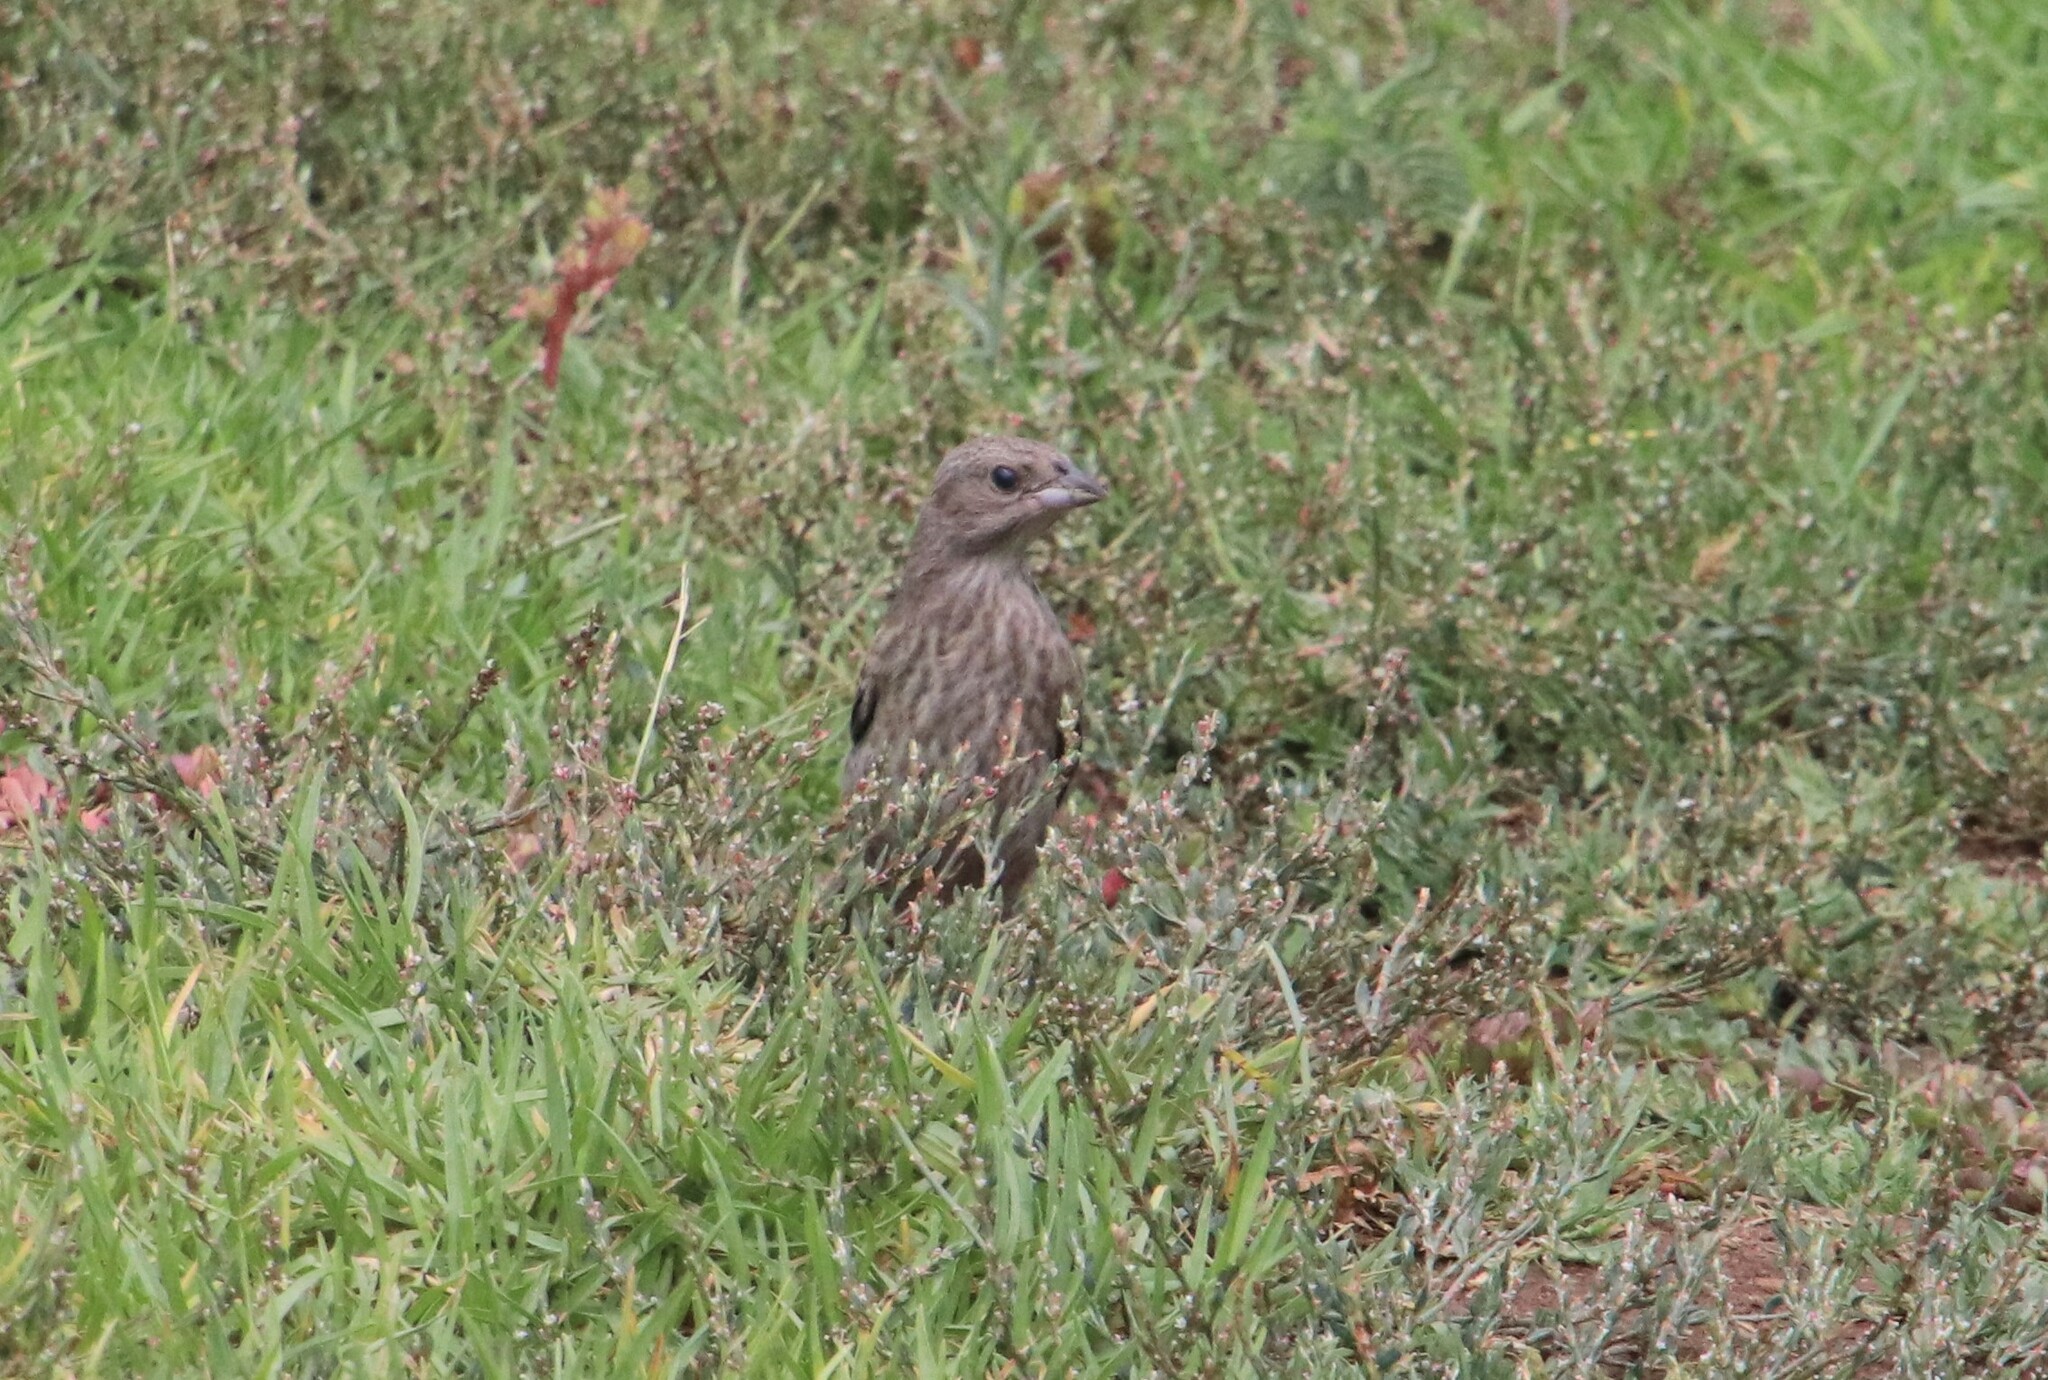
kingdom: Animalia
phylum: Chordata
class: Aves
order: Passeriformes
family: Icteridae
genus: Molothrus
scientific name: Molothrus ater
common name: Brown-headed cowbird
